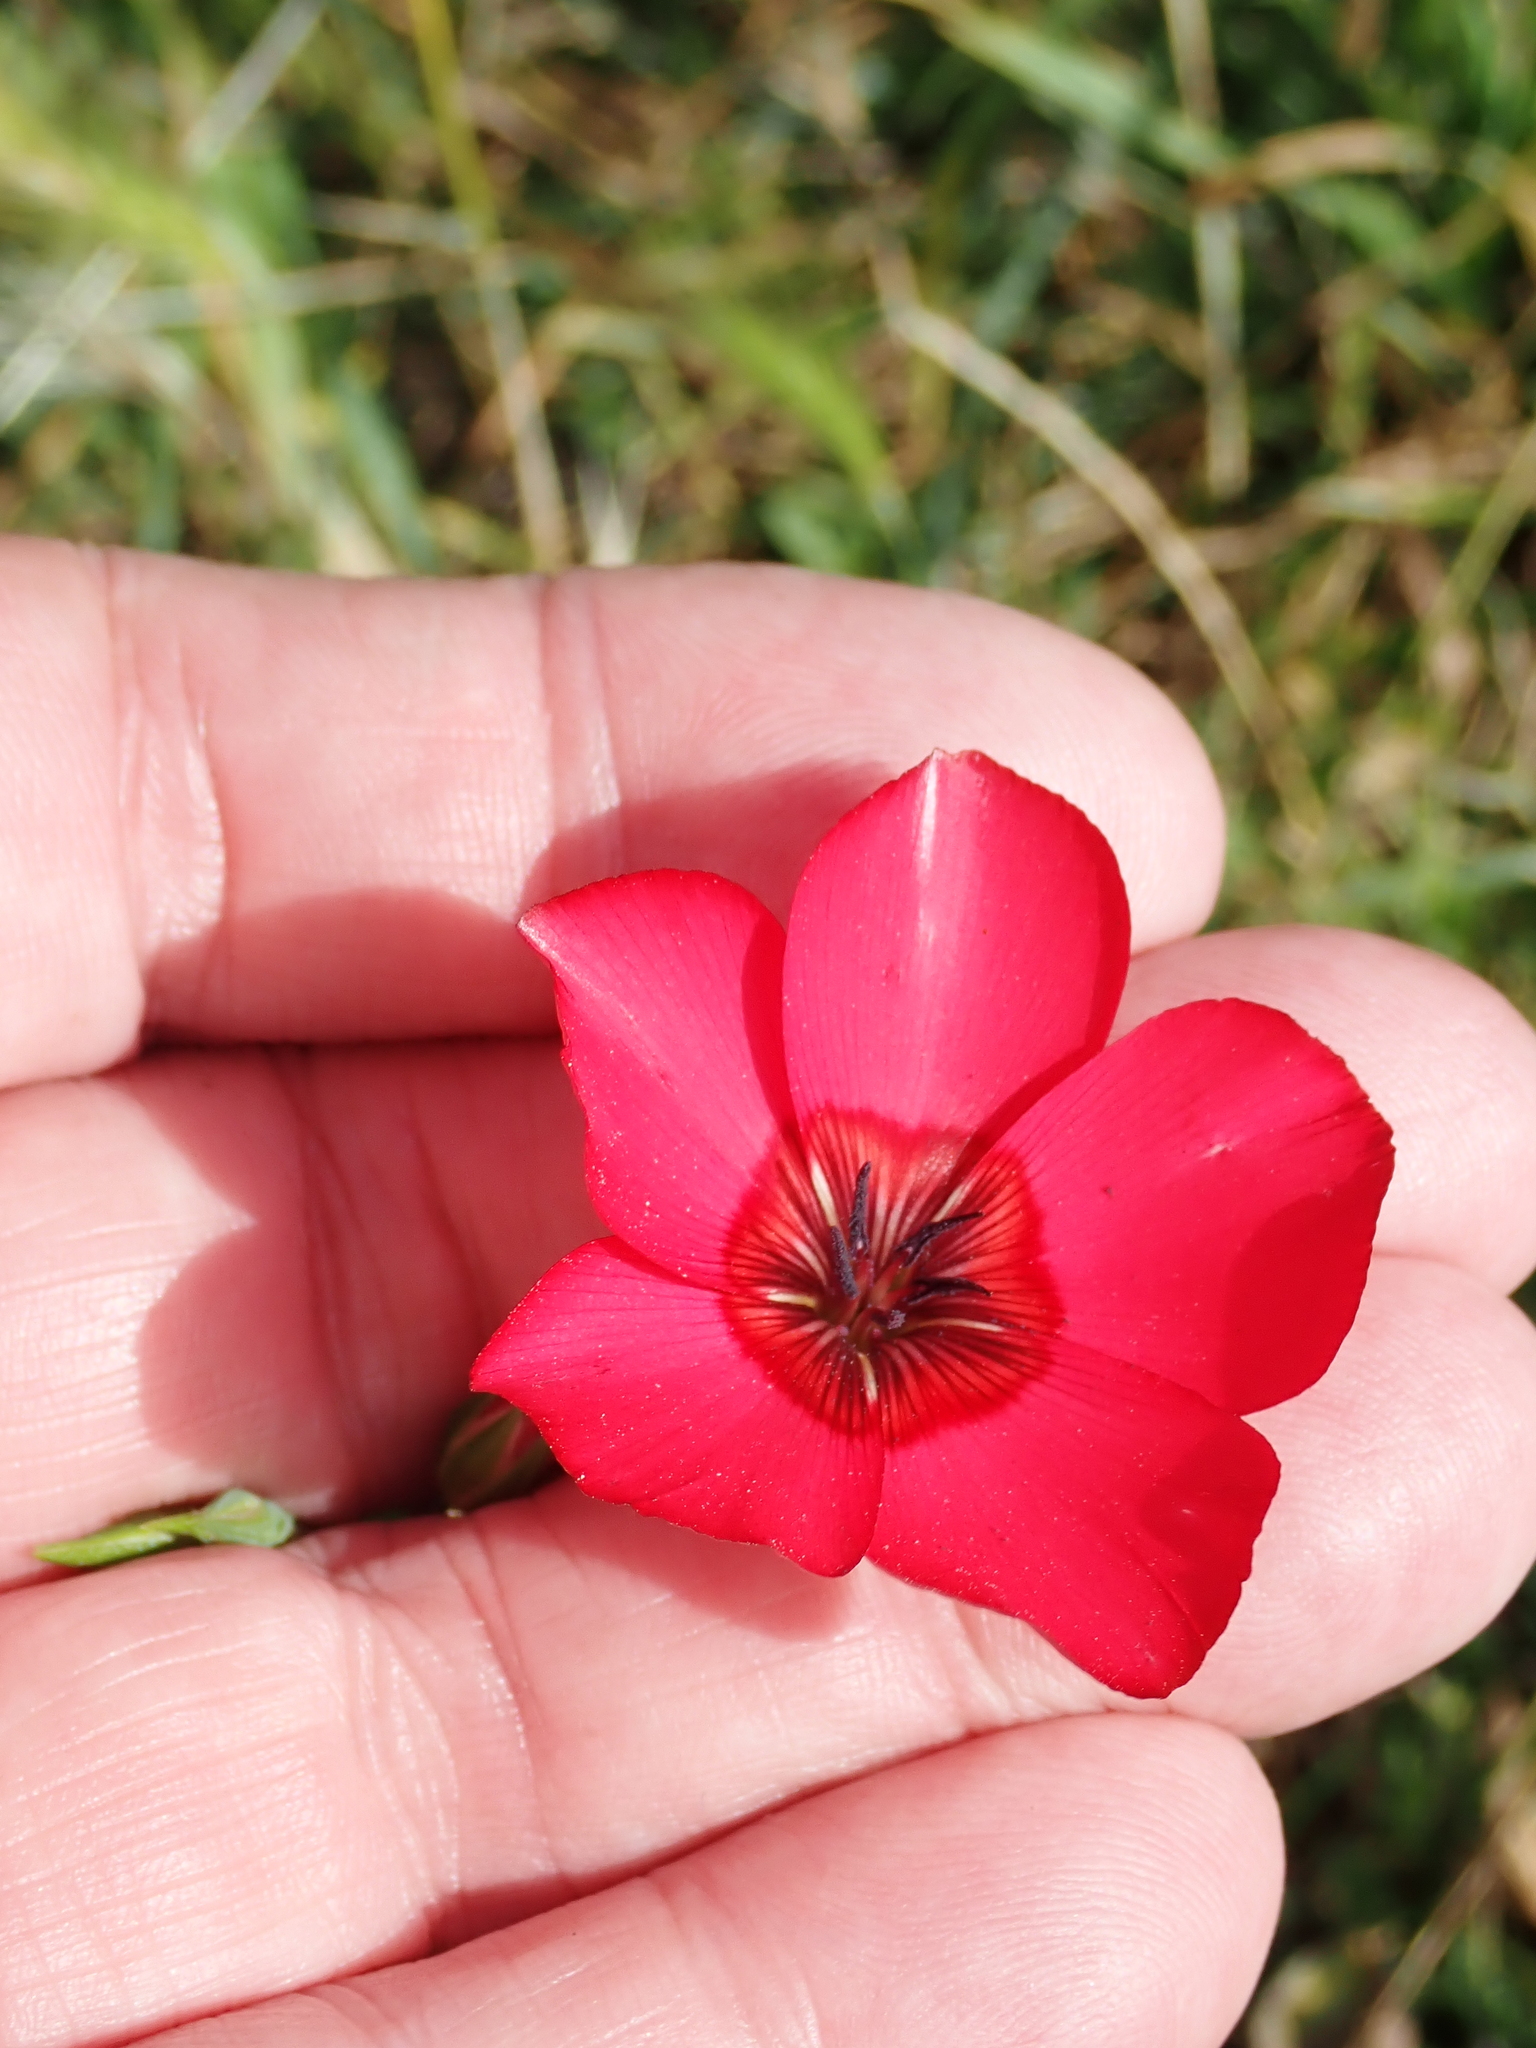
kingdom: Plantae
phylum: Tracheophyta
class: Magnoliopsida
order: Malpighiales
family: Linaceae
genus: Linum
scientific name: Linum grandiflorum
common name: Crimson flax
